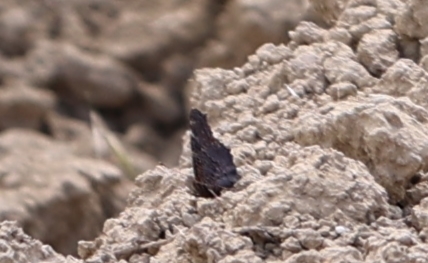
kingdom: Animalia
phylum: Arthropoda
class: Insecta
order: Lepidoptera
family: Nymphalidae
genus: Aglais
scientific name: Aglais io
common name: Peacock
